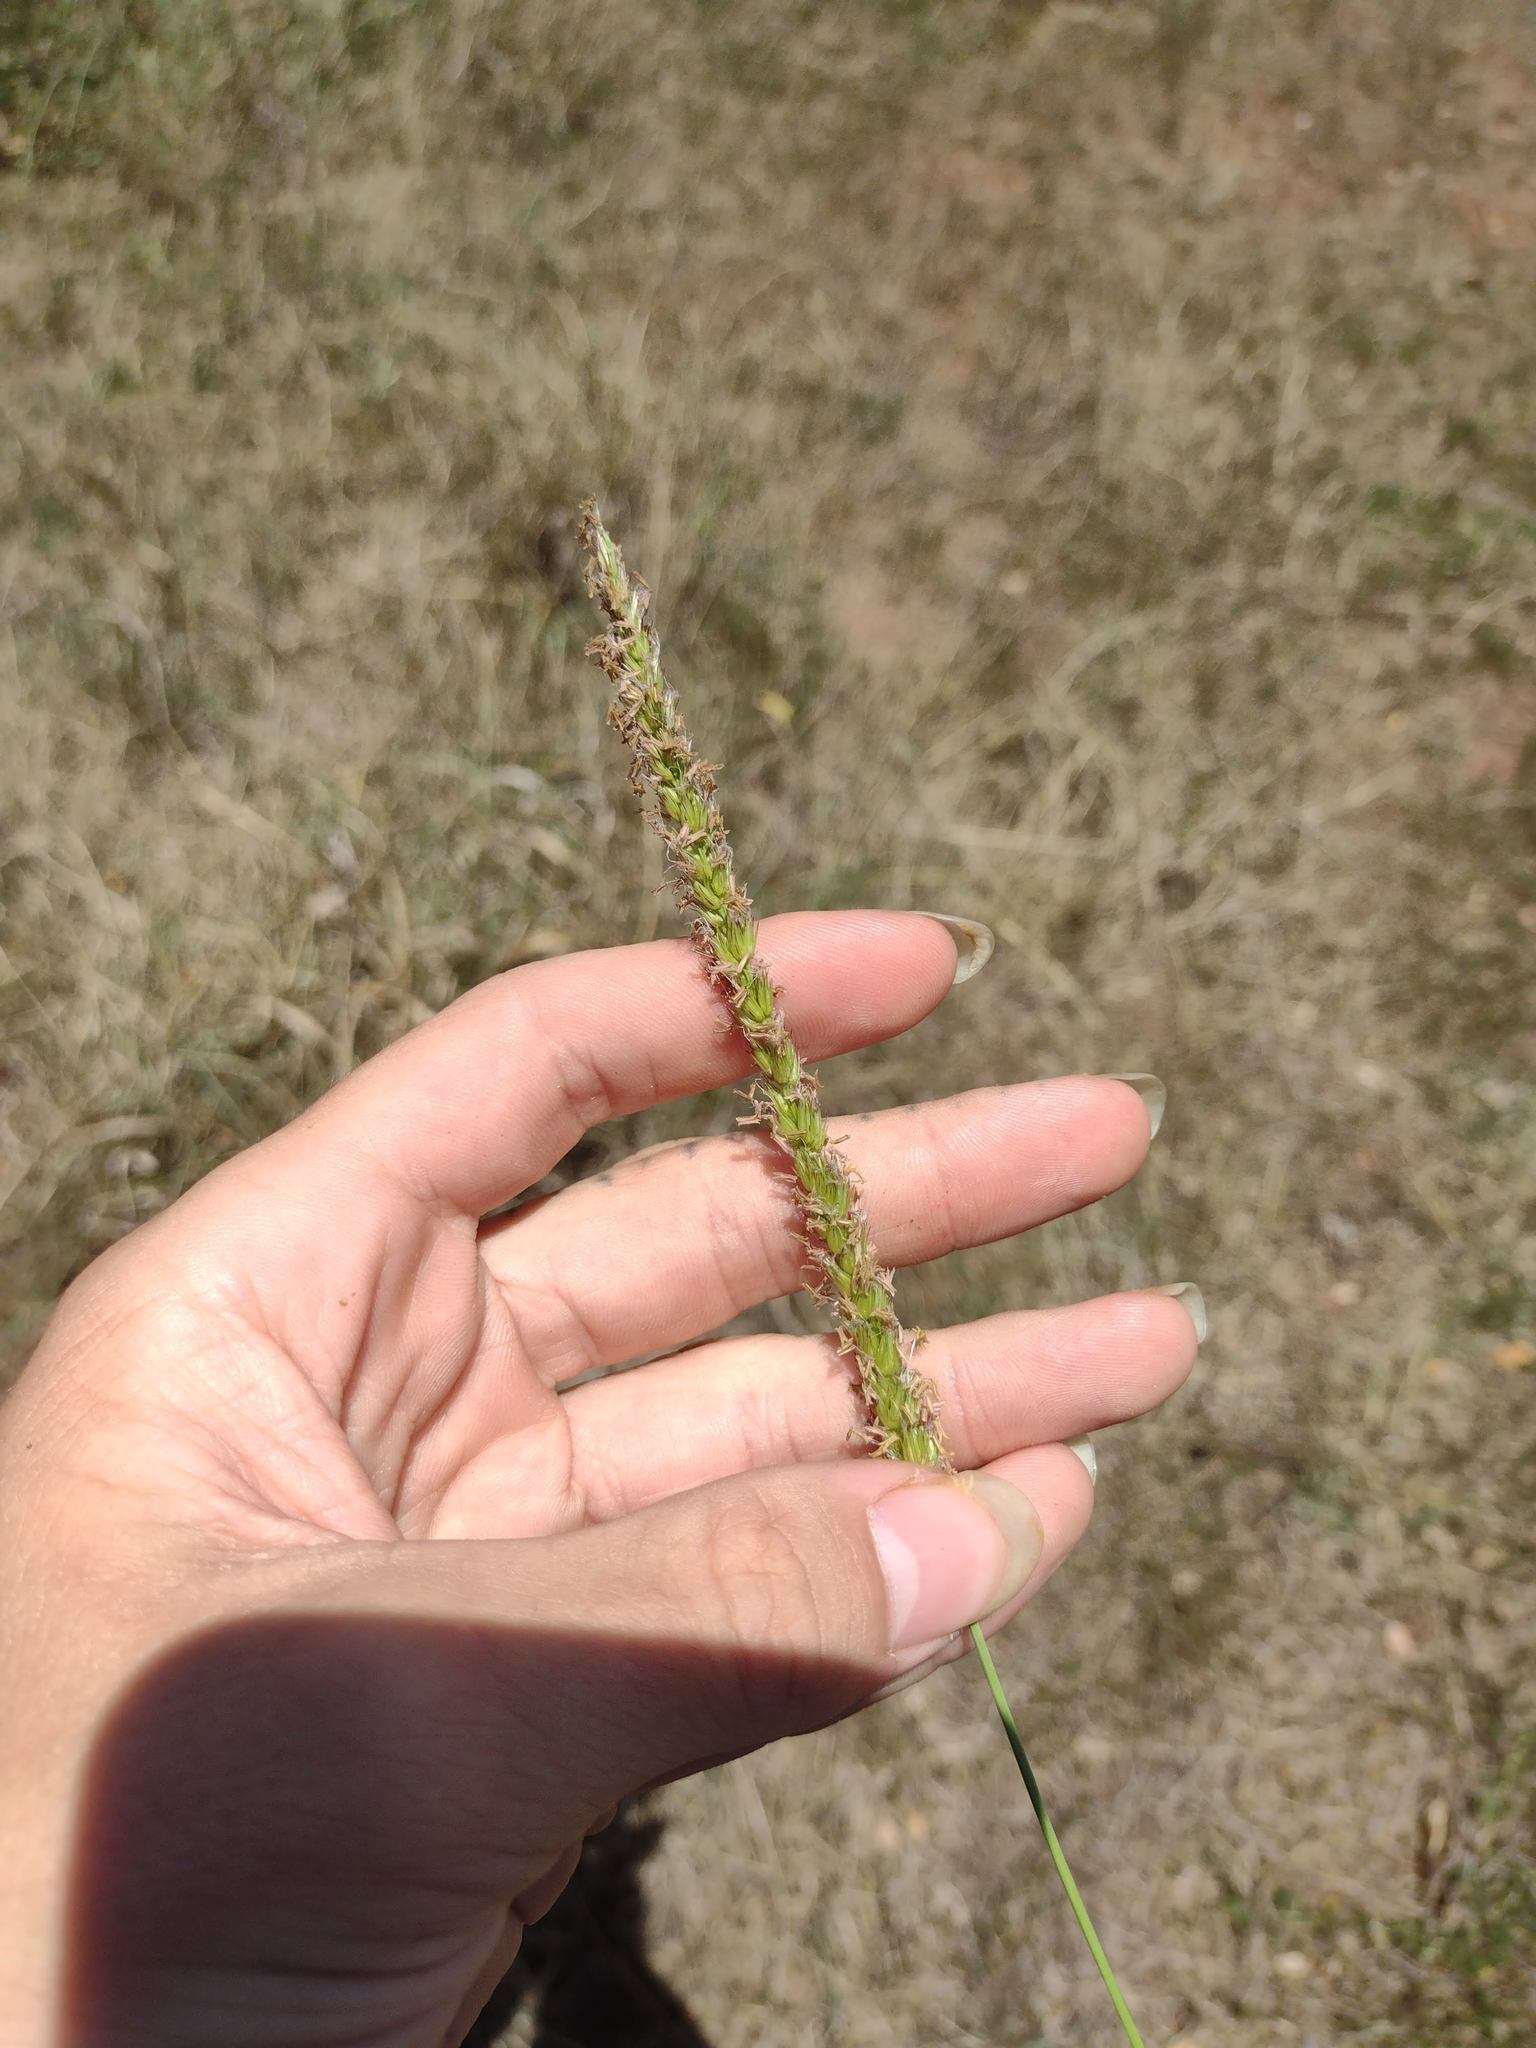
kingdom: Plantae
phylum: Tracheophyta
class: Liliopsida
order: Poales
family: Poaceae
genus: Cenchrus
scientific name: Cenchrus setigerus
